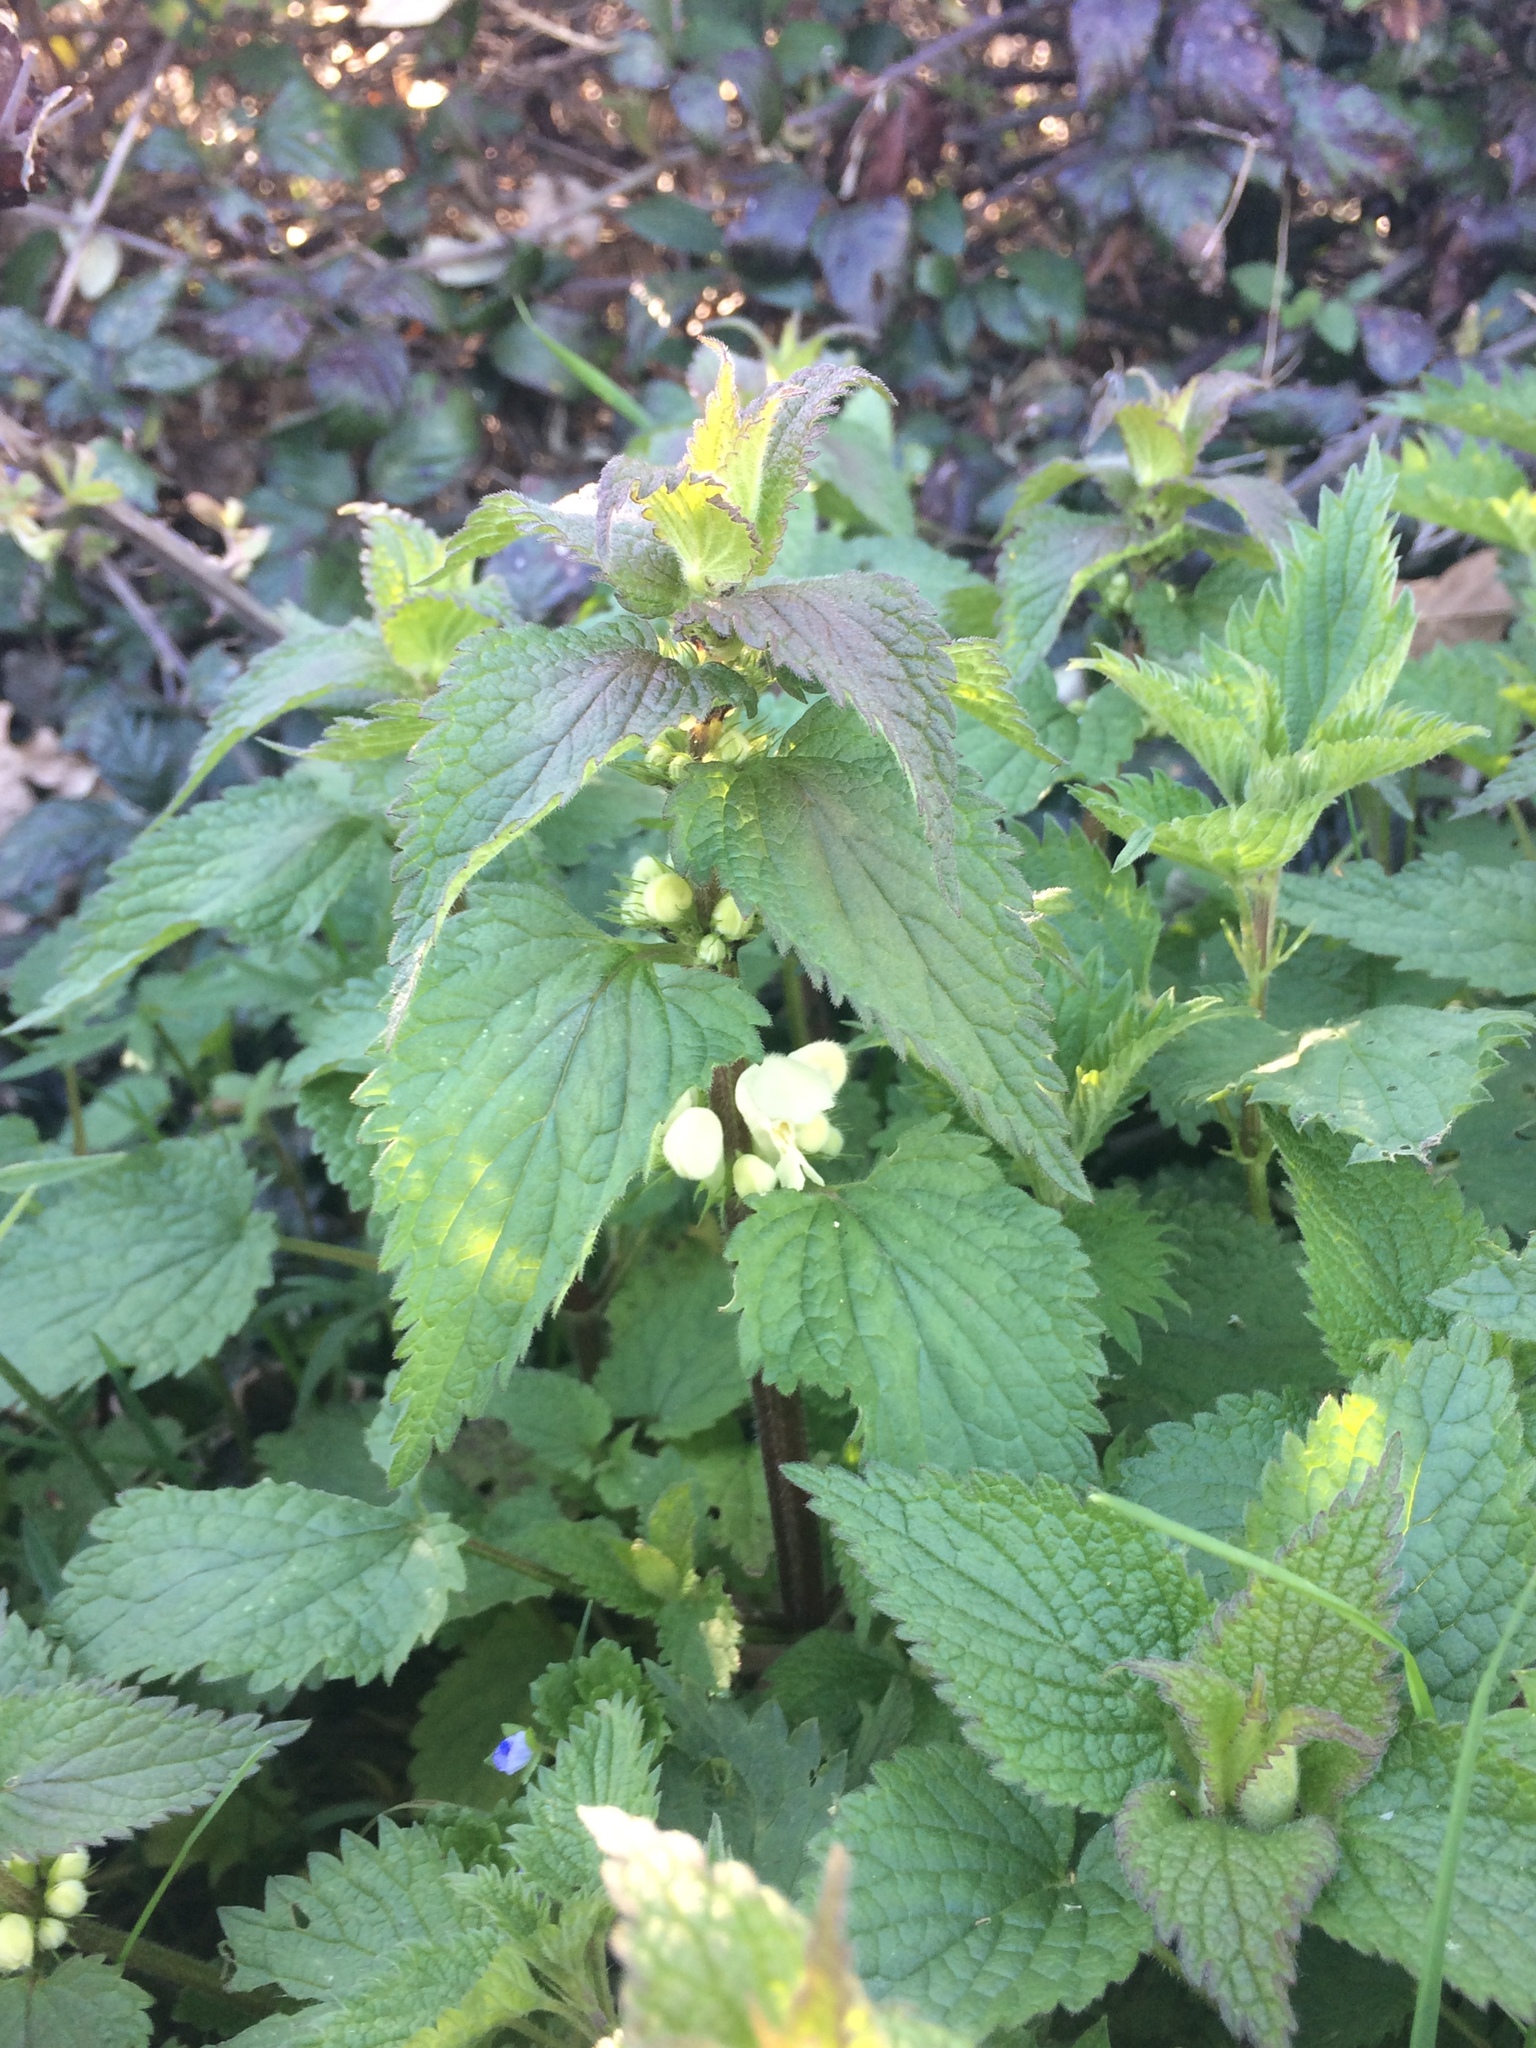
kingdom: Plantae
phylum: Tracheophyta
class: Magnoliopsida
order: Lamiales
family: Lamiaceae
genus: Lamium
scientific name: Lamium album
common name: White dead-nettle
